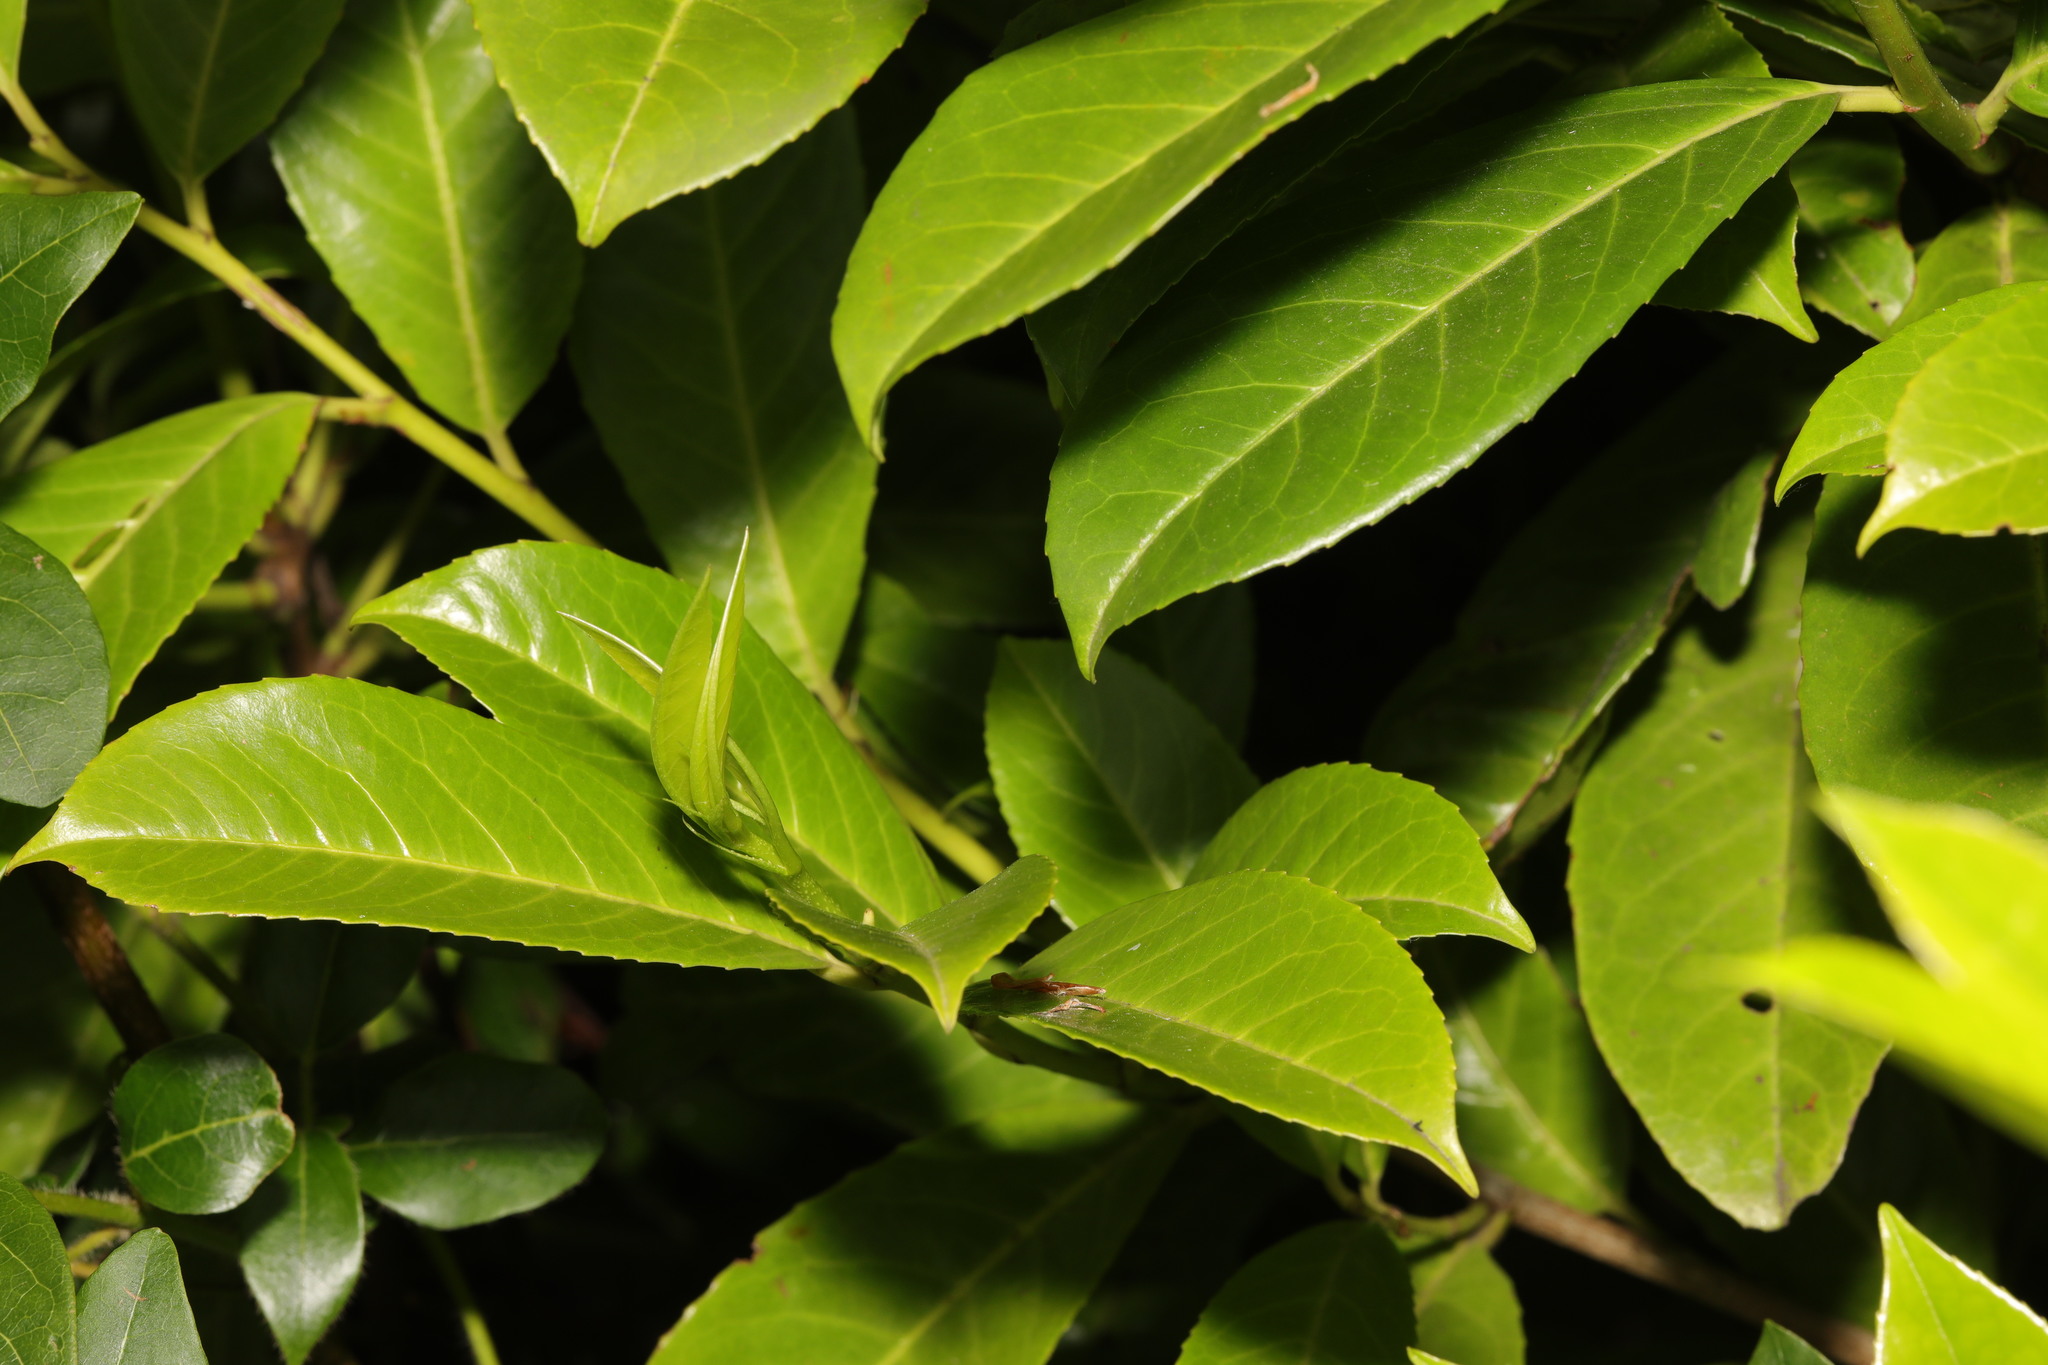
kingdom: Plantae
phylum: Tracheophyta
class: Magnoliopsida
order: Rosales
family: Rosaceae
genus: Prunus
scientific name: Prunus laurocerasus
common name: Cherry laurel
